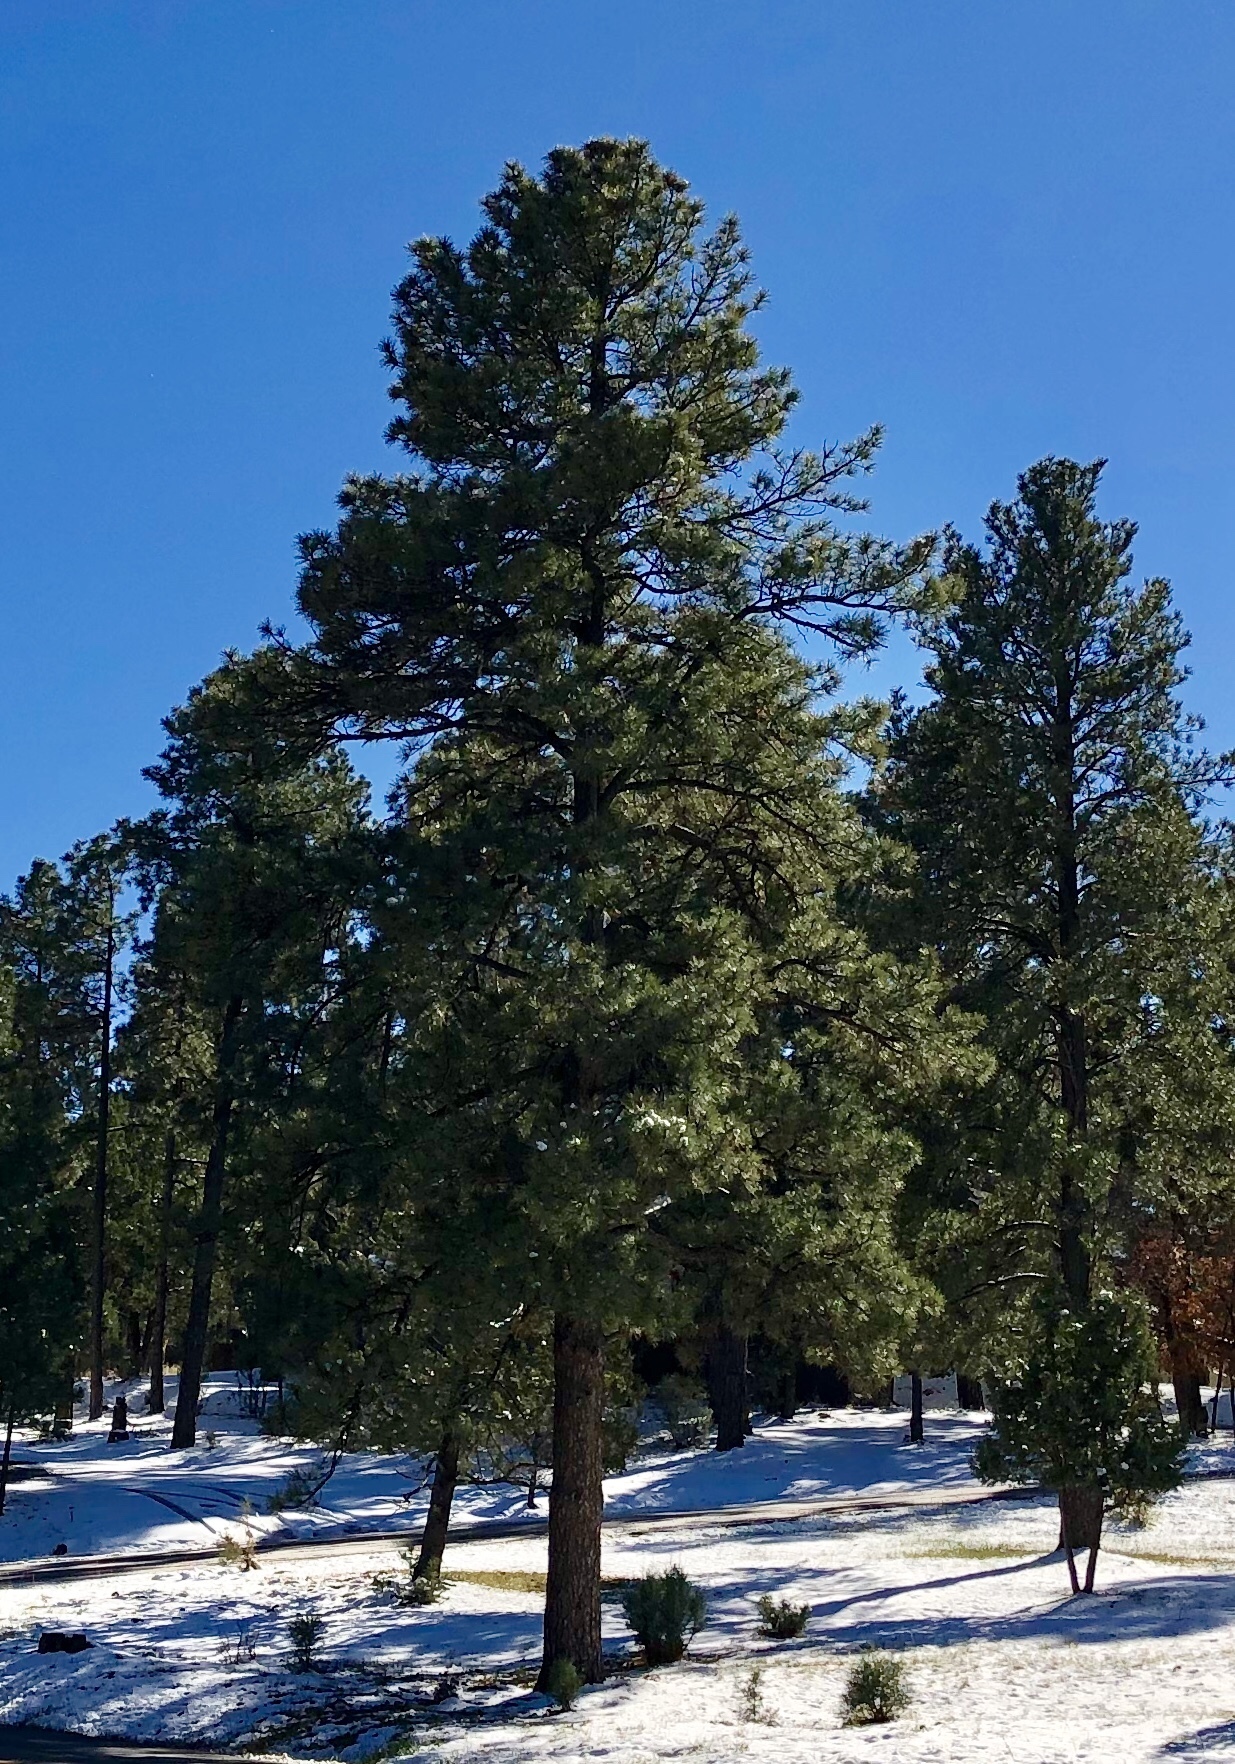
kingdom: Plantae
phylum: Tracheophyta
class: Pinopsida
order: Pinales
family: Pinaceae
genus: Pinus
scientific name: Pinus ponderosa
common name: Western yellow-pine
